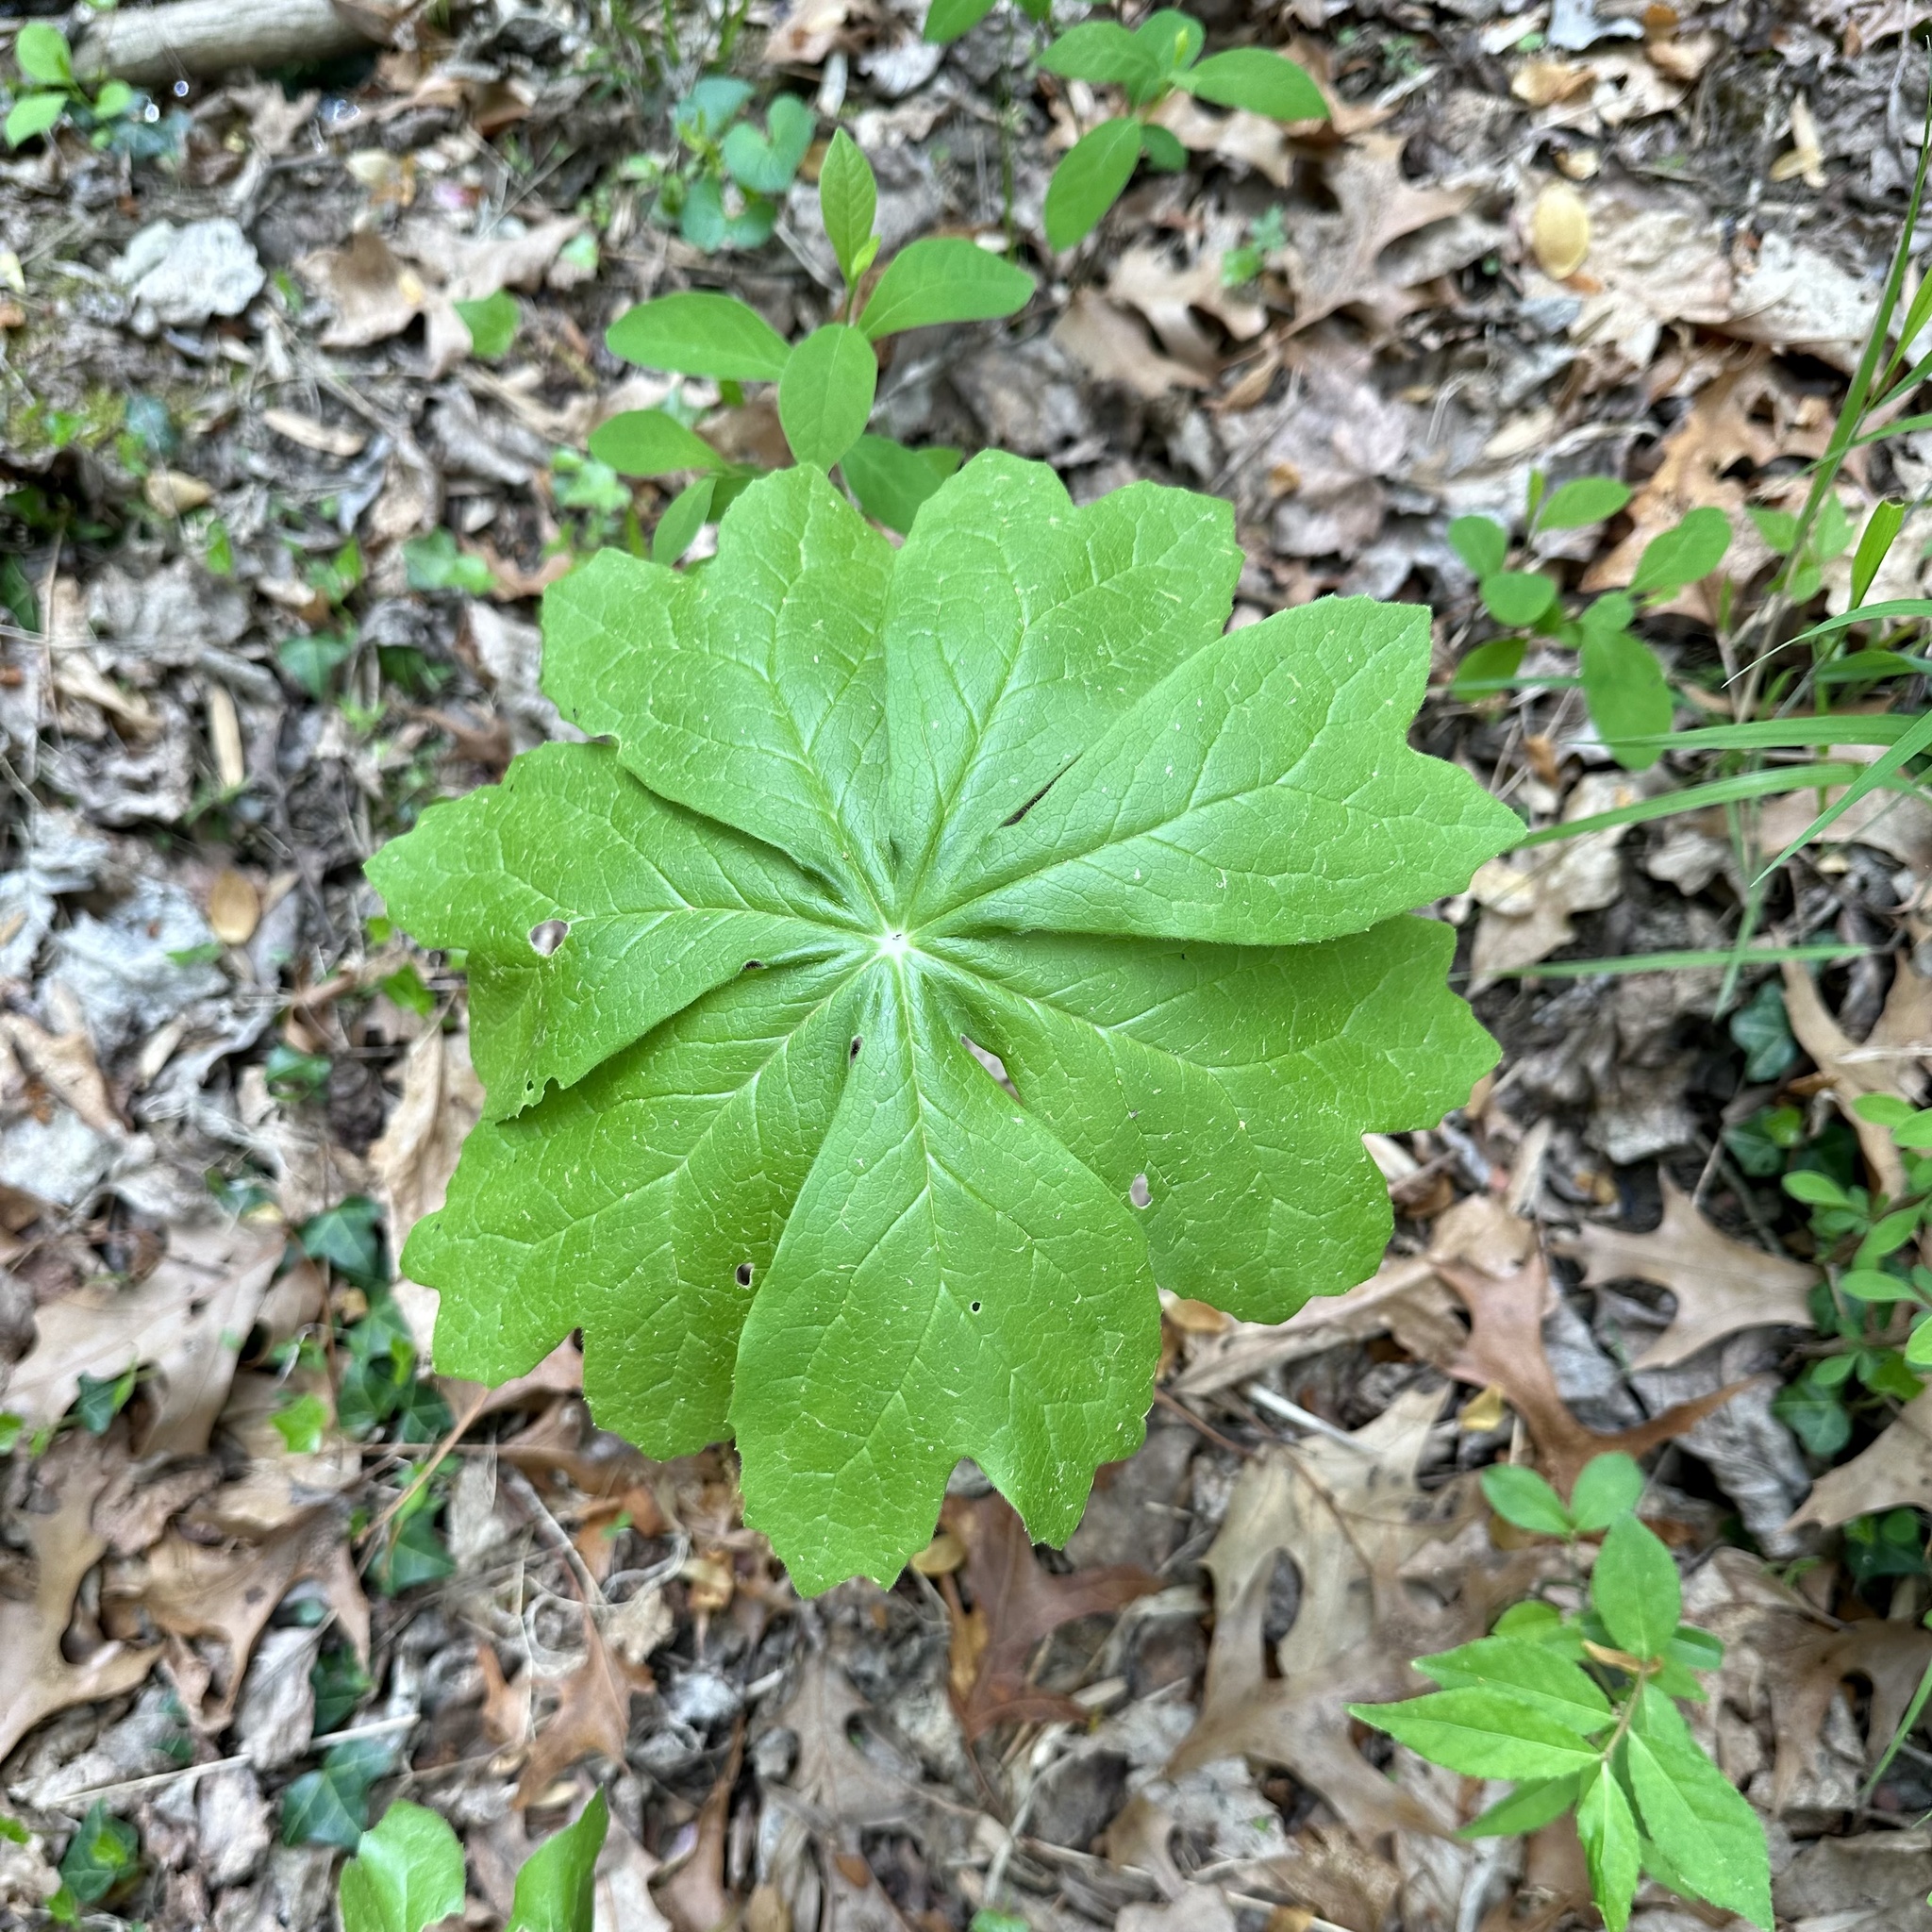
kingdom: Plantae
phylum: Tracheophyta
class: Magnoliopsida
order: Ranunculales
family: Berberidaceae
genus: Podophyllum
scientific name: Podophyllum peltatum
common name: Wild mandrake
